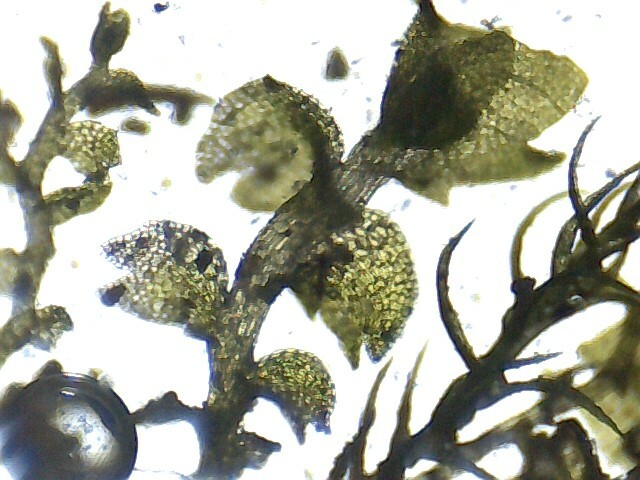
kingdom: Plantae
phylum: Marchantiophyta
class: Jungermanniopsida
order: Jungermanniales
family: Jungermanniaceae
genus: Mesoptychia
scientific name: Mesoptychia turbinata
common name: Top notchwort
